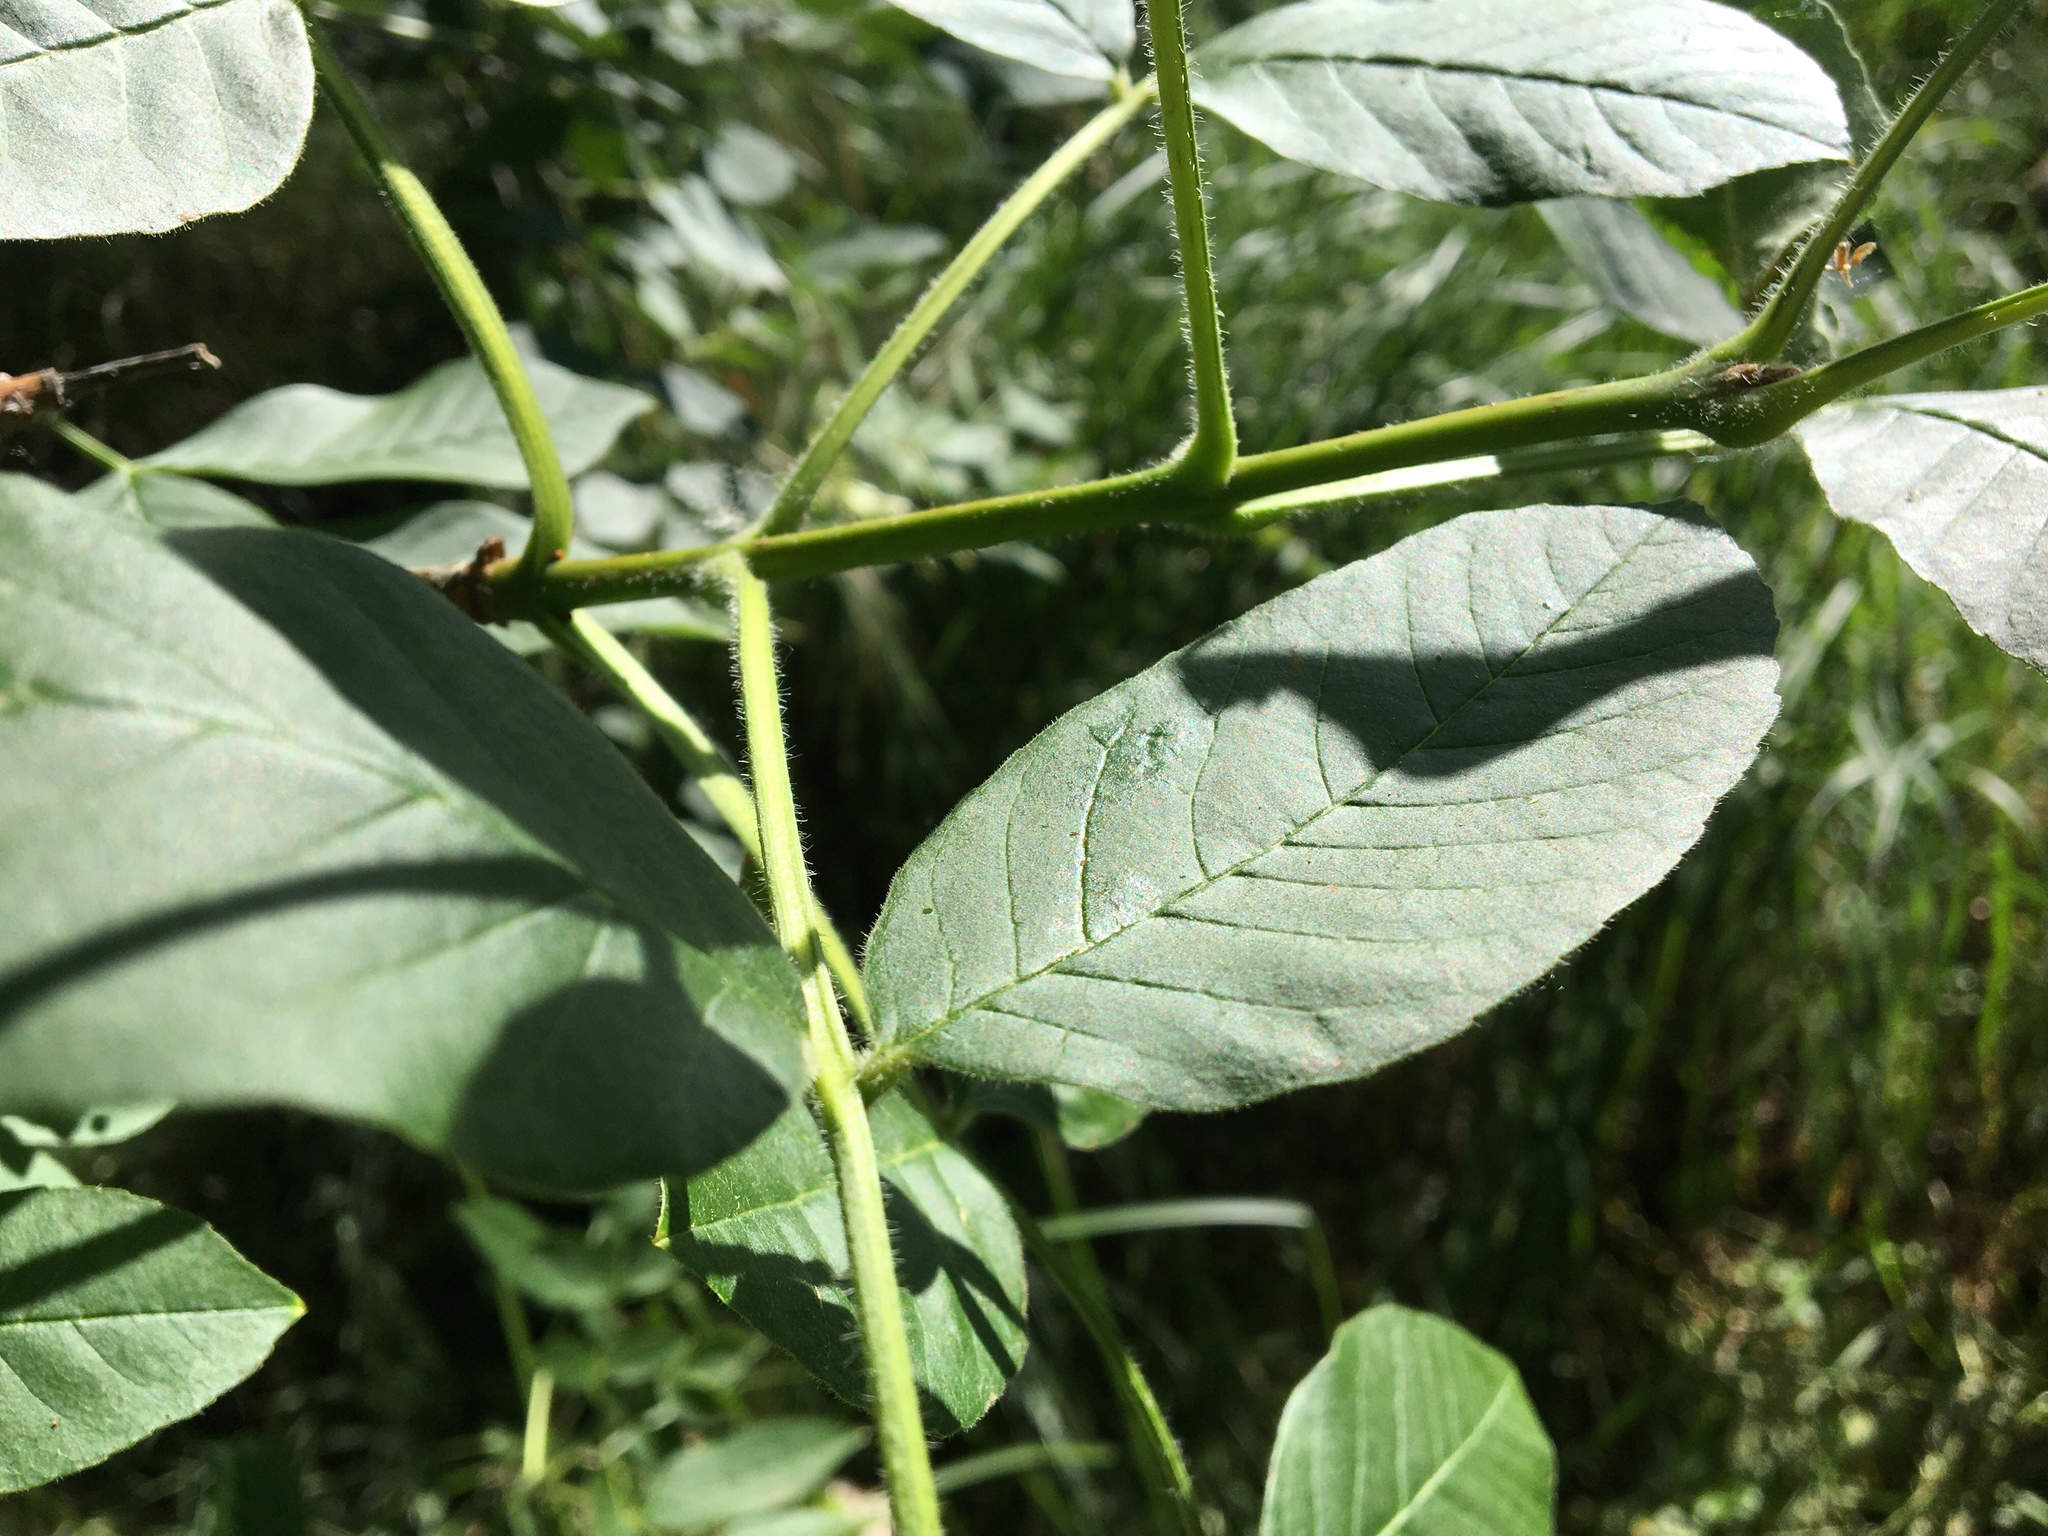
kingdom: Plantae
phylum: Tracheophyta
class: Magnoliopsida
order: Lamiales
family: Oleaceae
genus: Fraxinus
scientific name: Fraxinus latifolia
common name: Oregon ash
